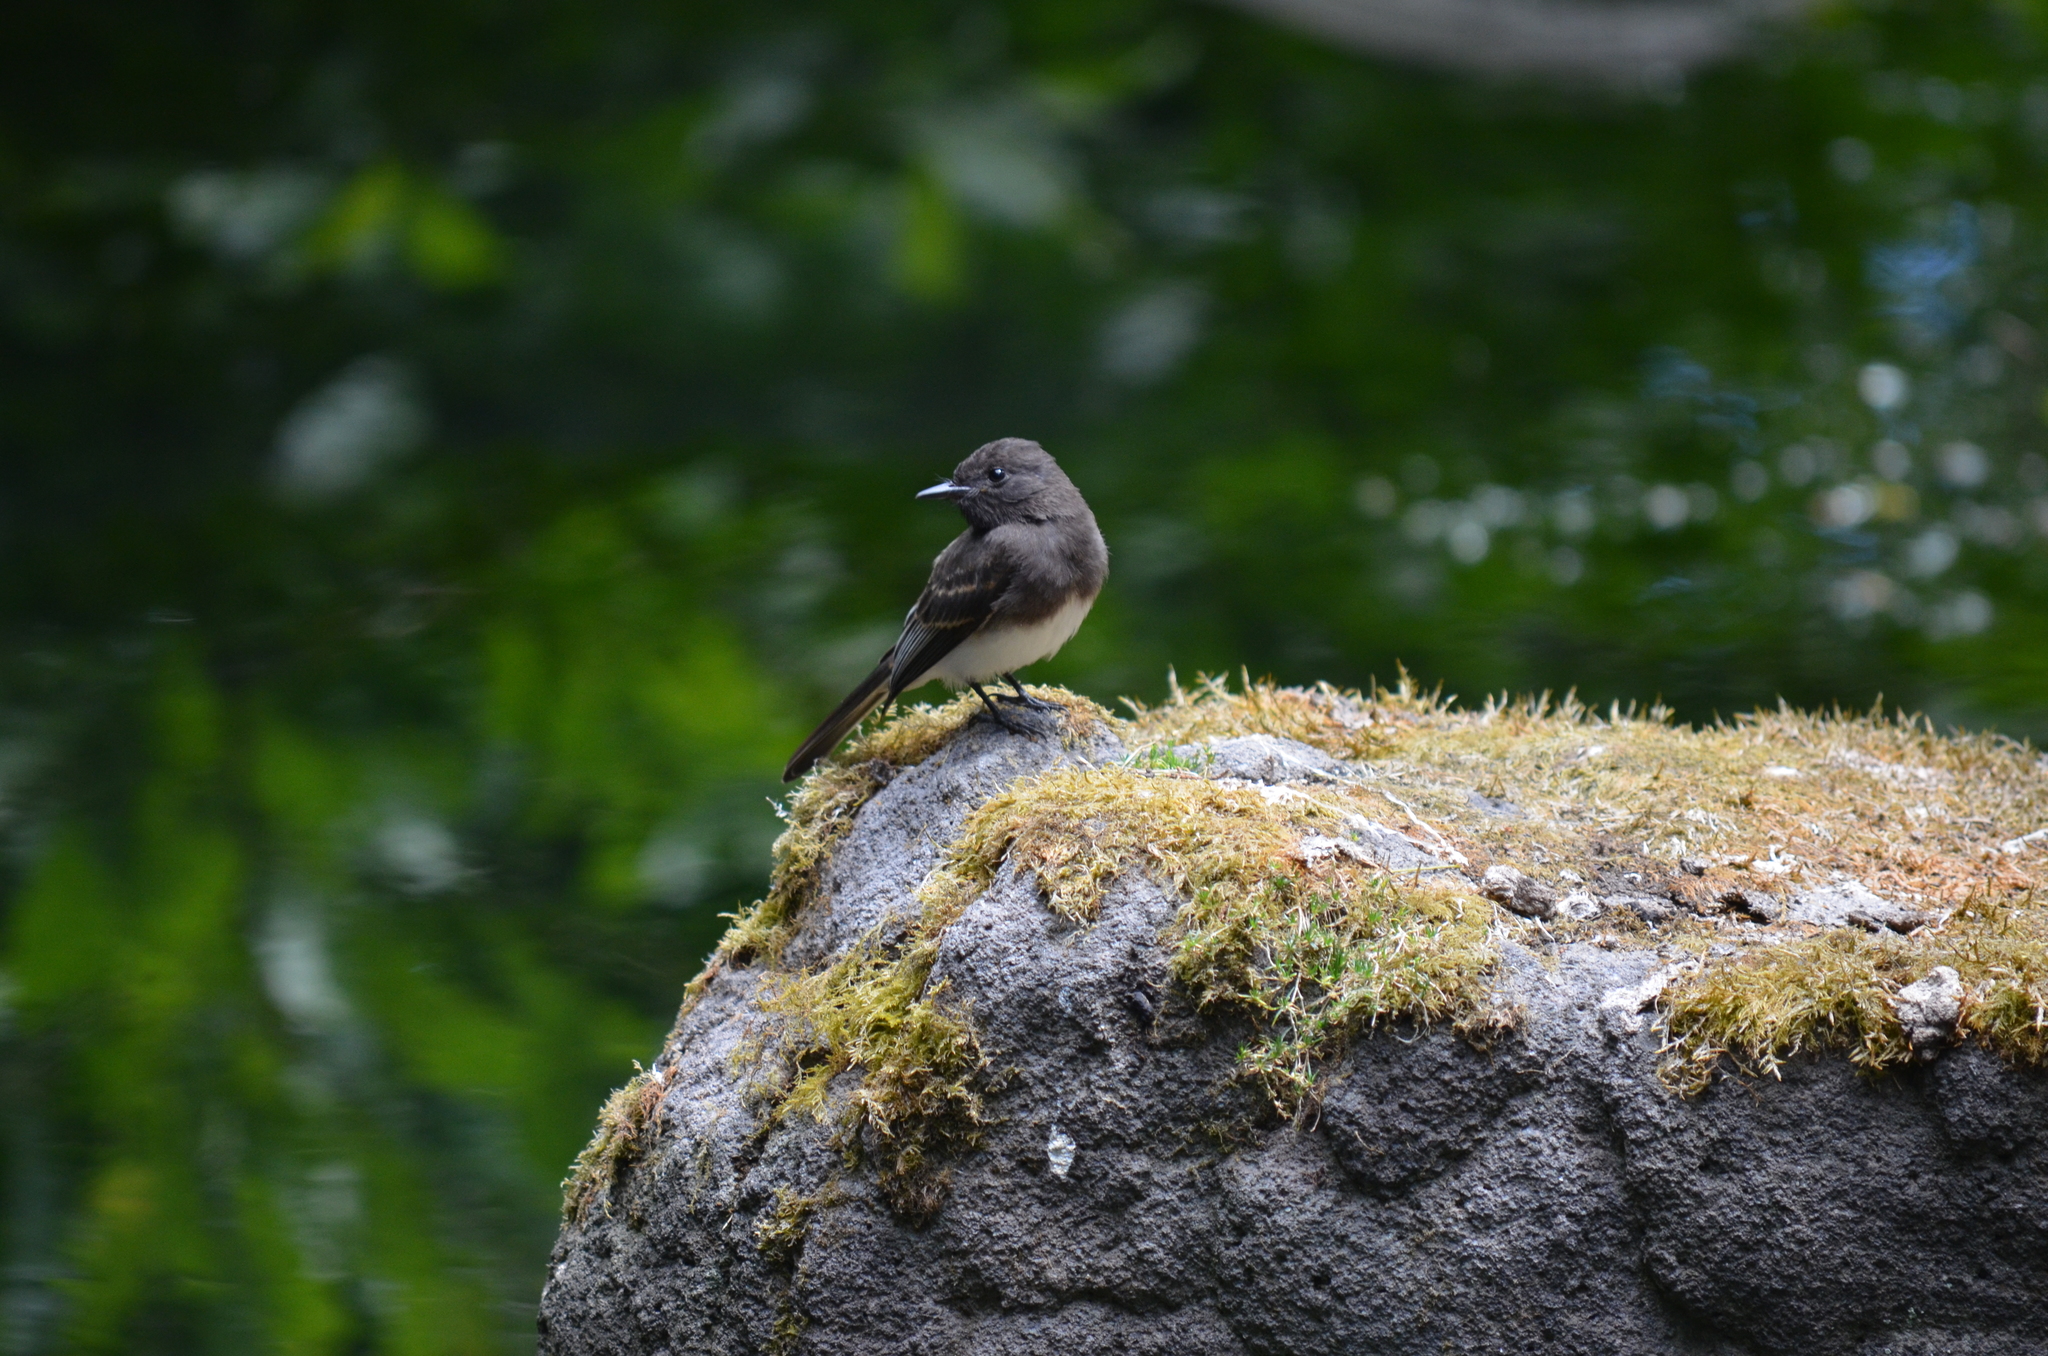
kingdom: Animalia
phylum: Chordata
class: Aves
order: Passeriformes
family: Tyrannidae
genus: Sayornis
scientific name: Sayornis nigricans
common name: Black phoebe
